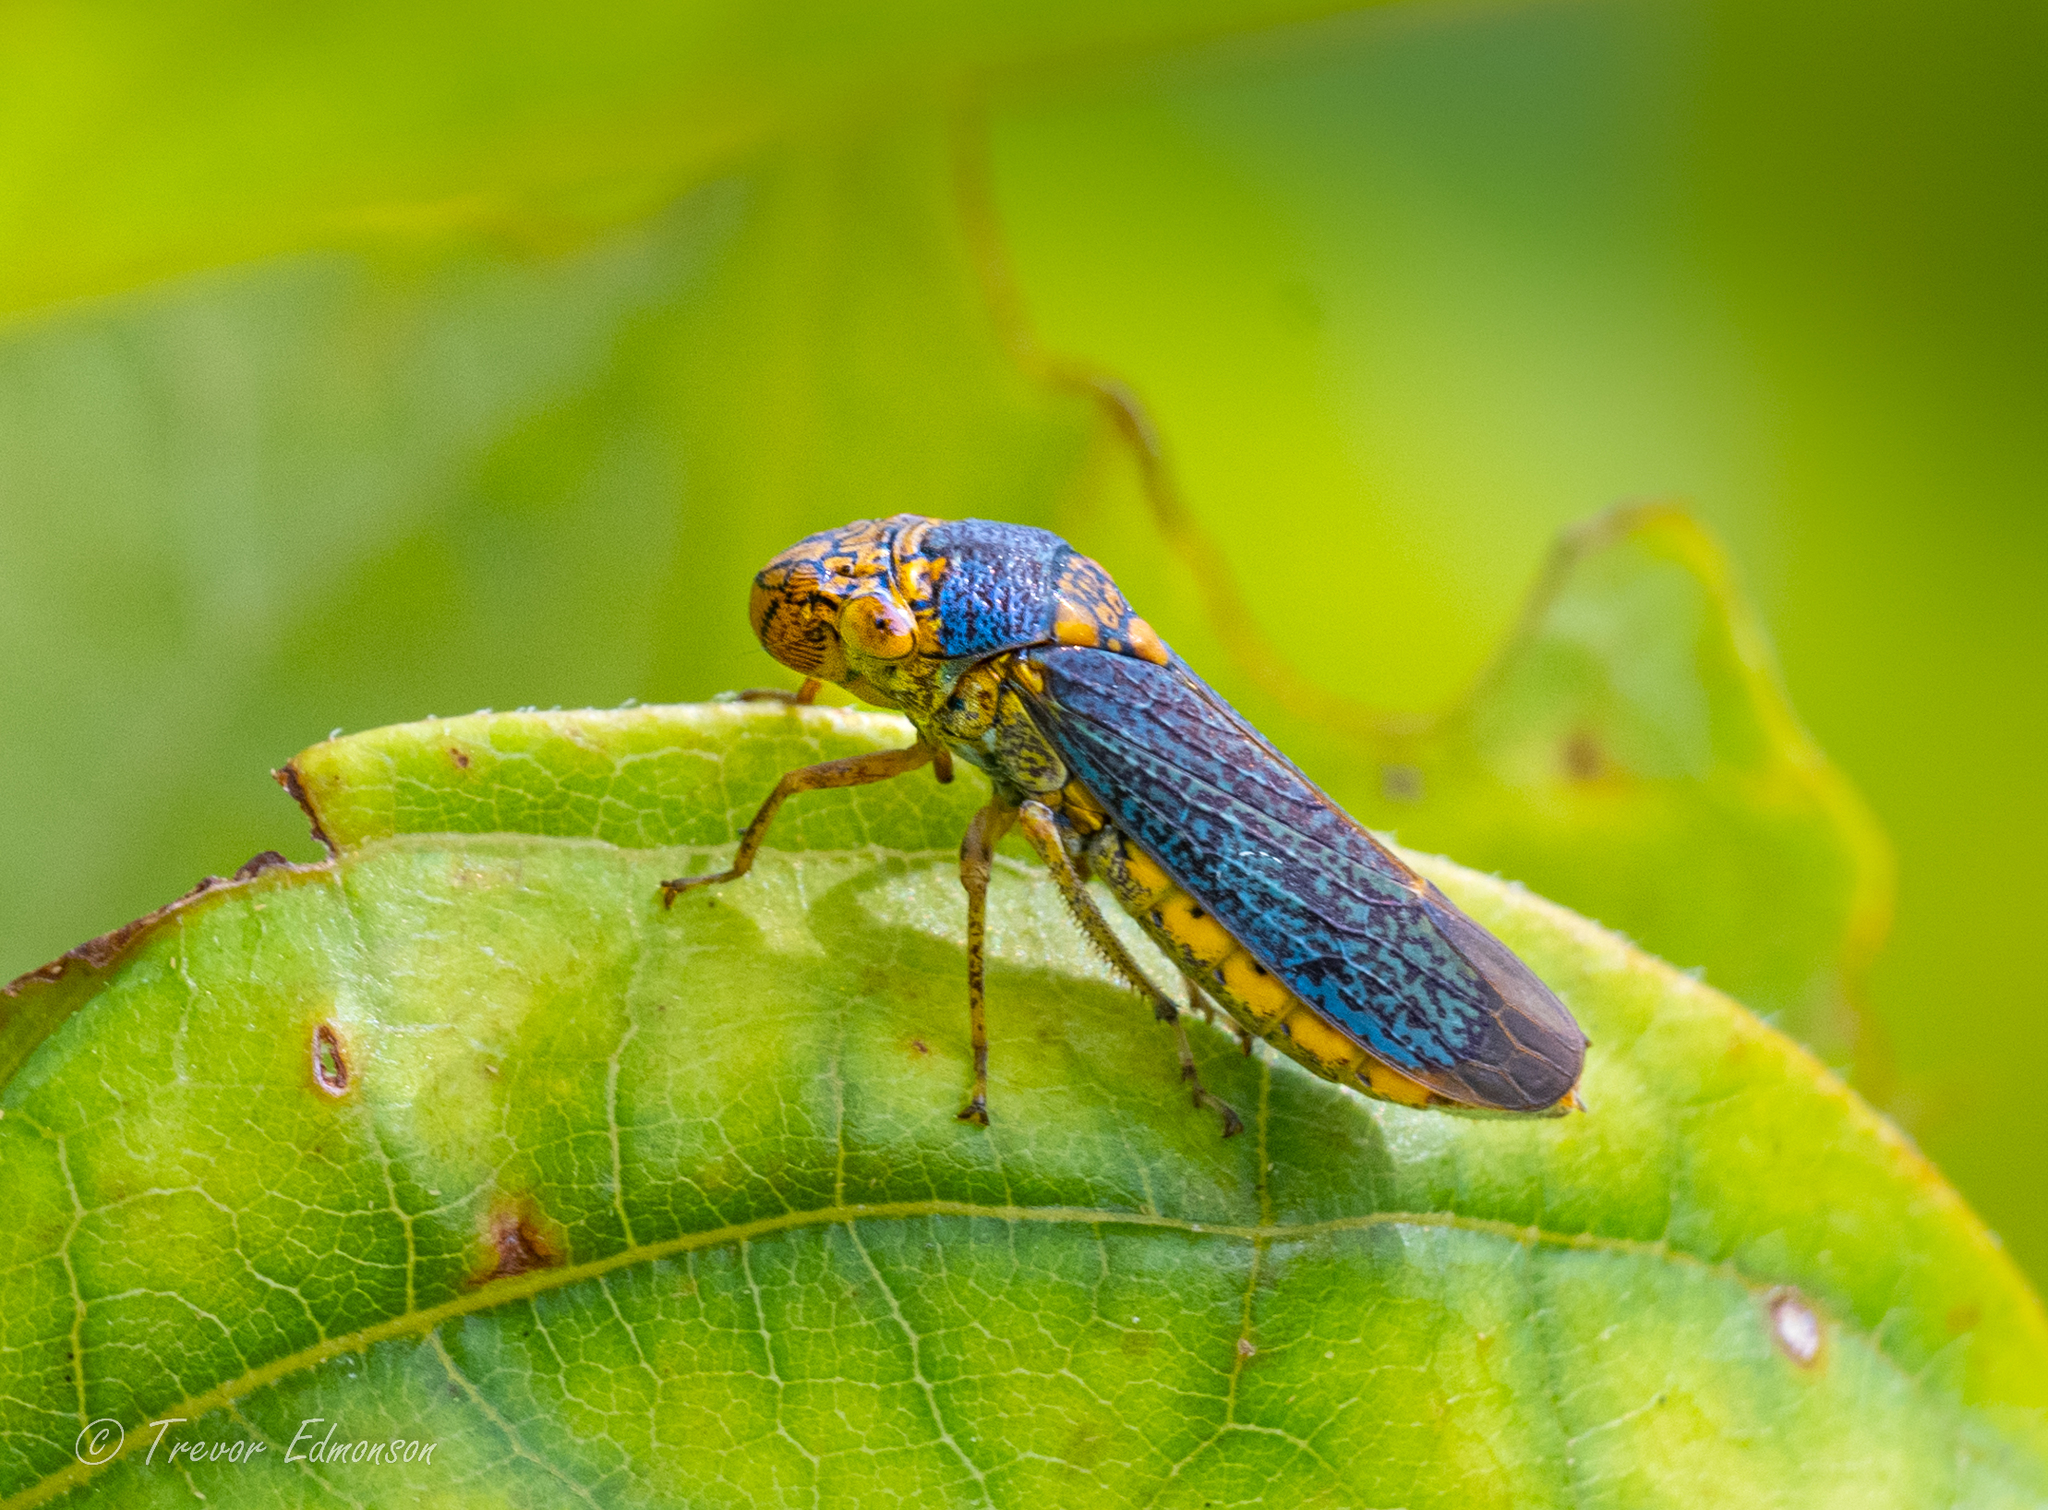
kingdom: Animalia
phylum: Arthropoda
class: Insecta
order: Hemiptera
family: Cicadellidae
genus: Oncometopia
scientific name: Oncometopia orbona
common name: Broad-headed sharpshooter
